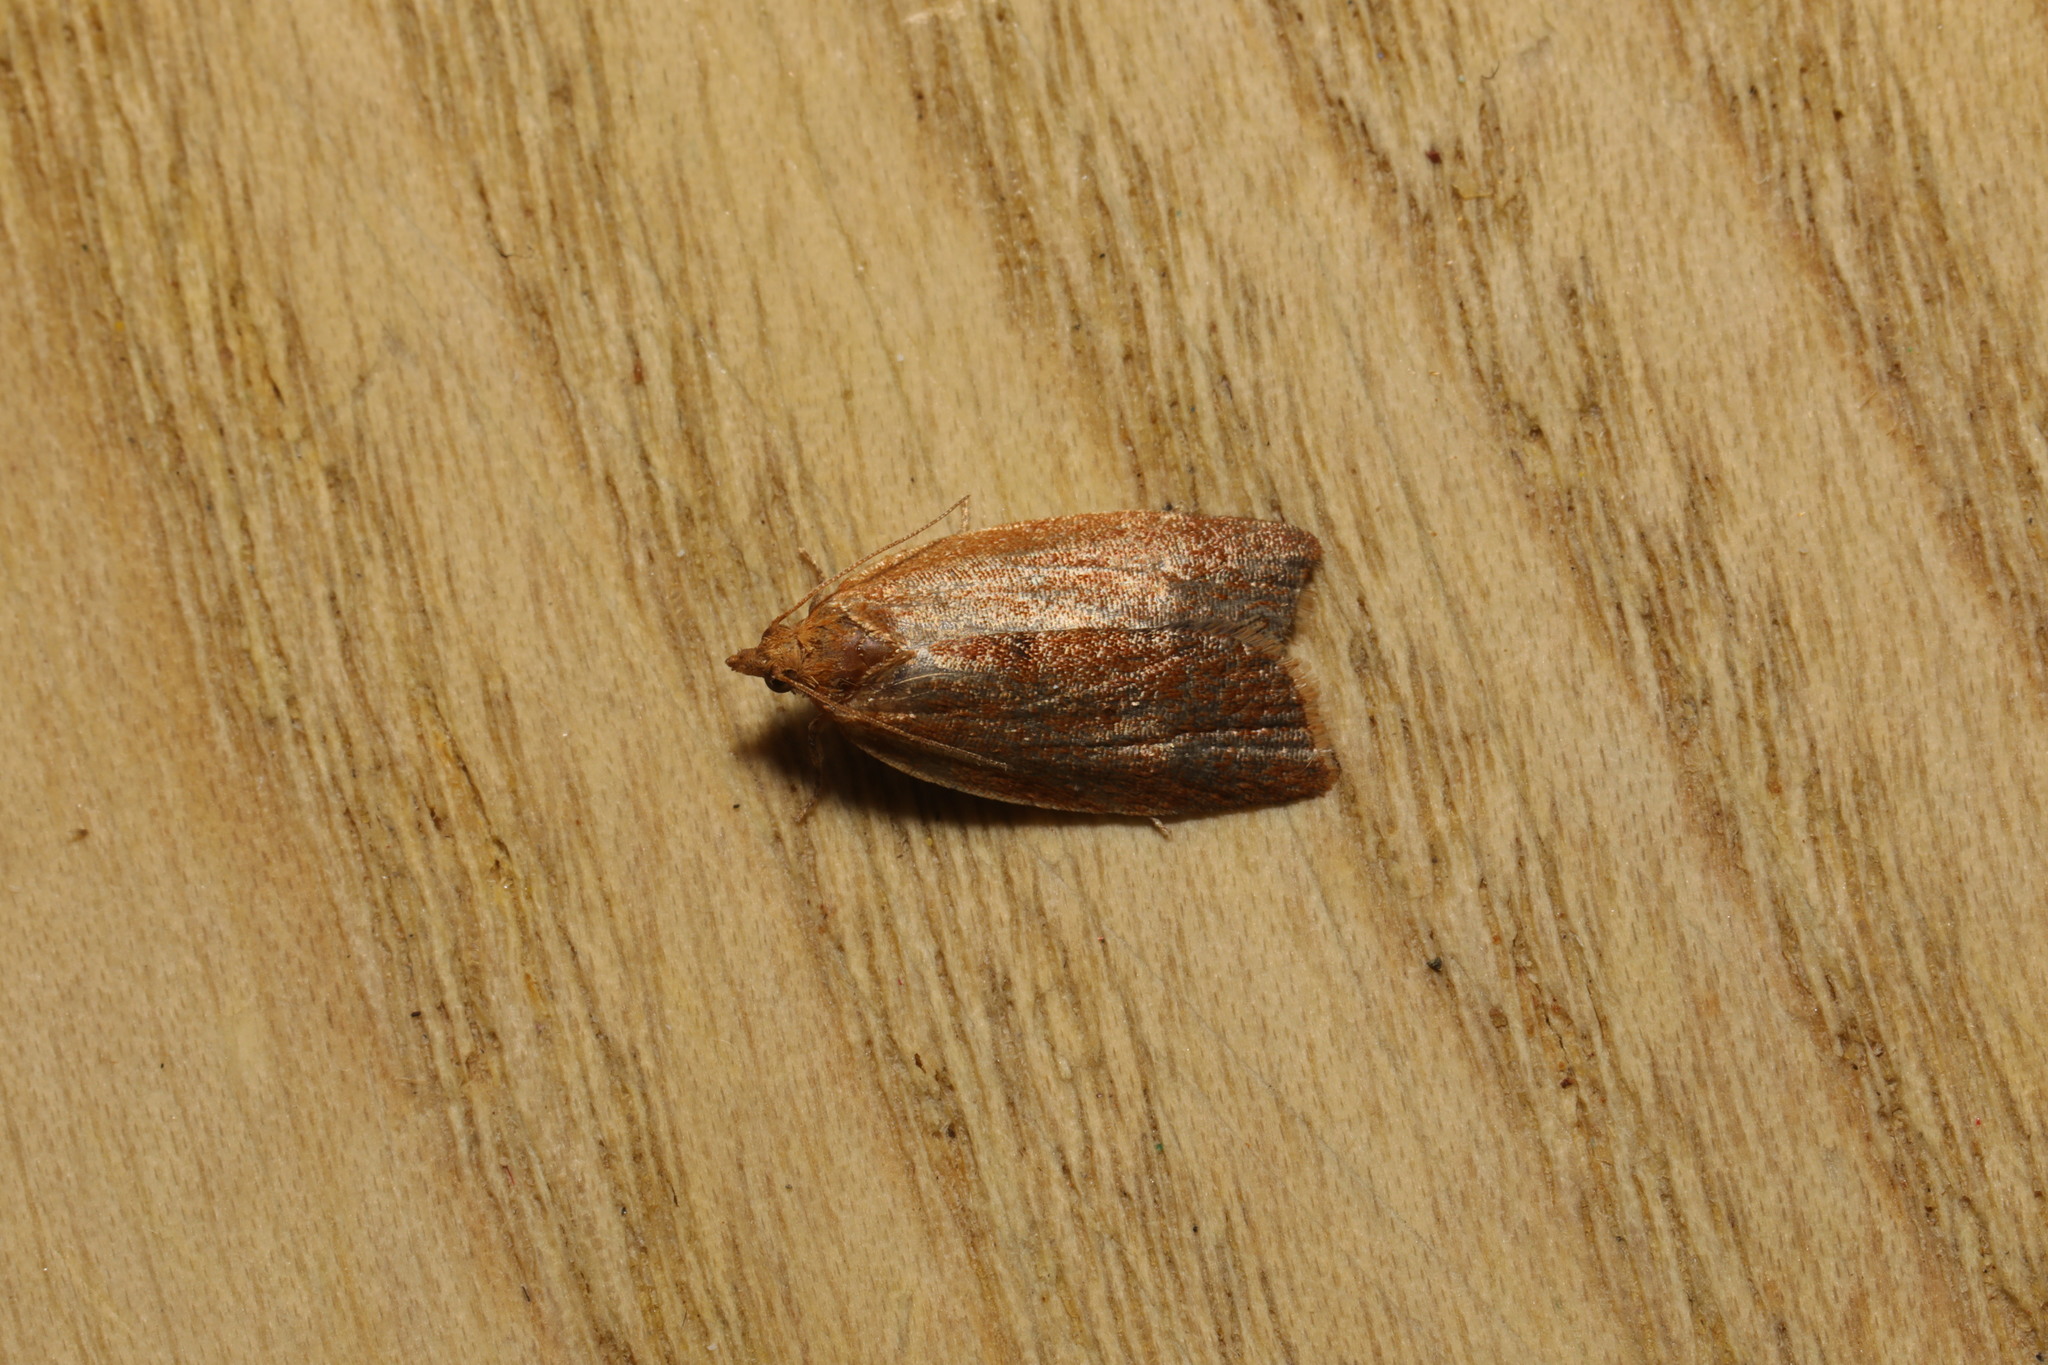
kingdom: Animalia
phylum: Arthropoda
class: Insecta
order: Lepidoptera
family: Tortricidae
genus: Clepsis
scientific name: Clepsis consimilana
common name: Privet tortrix
